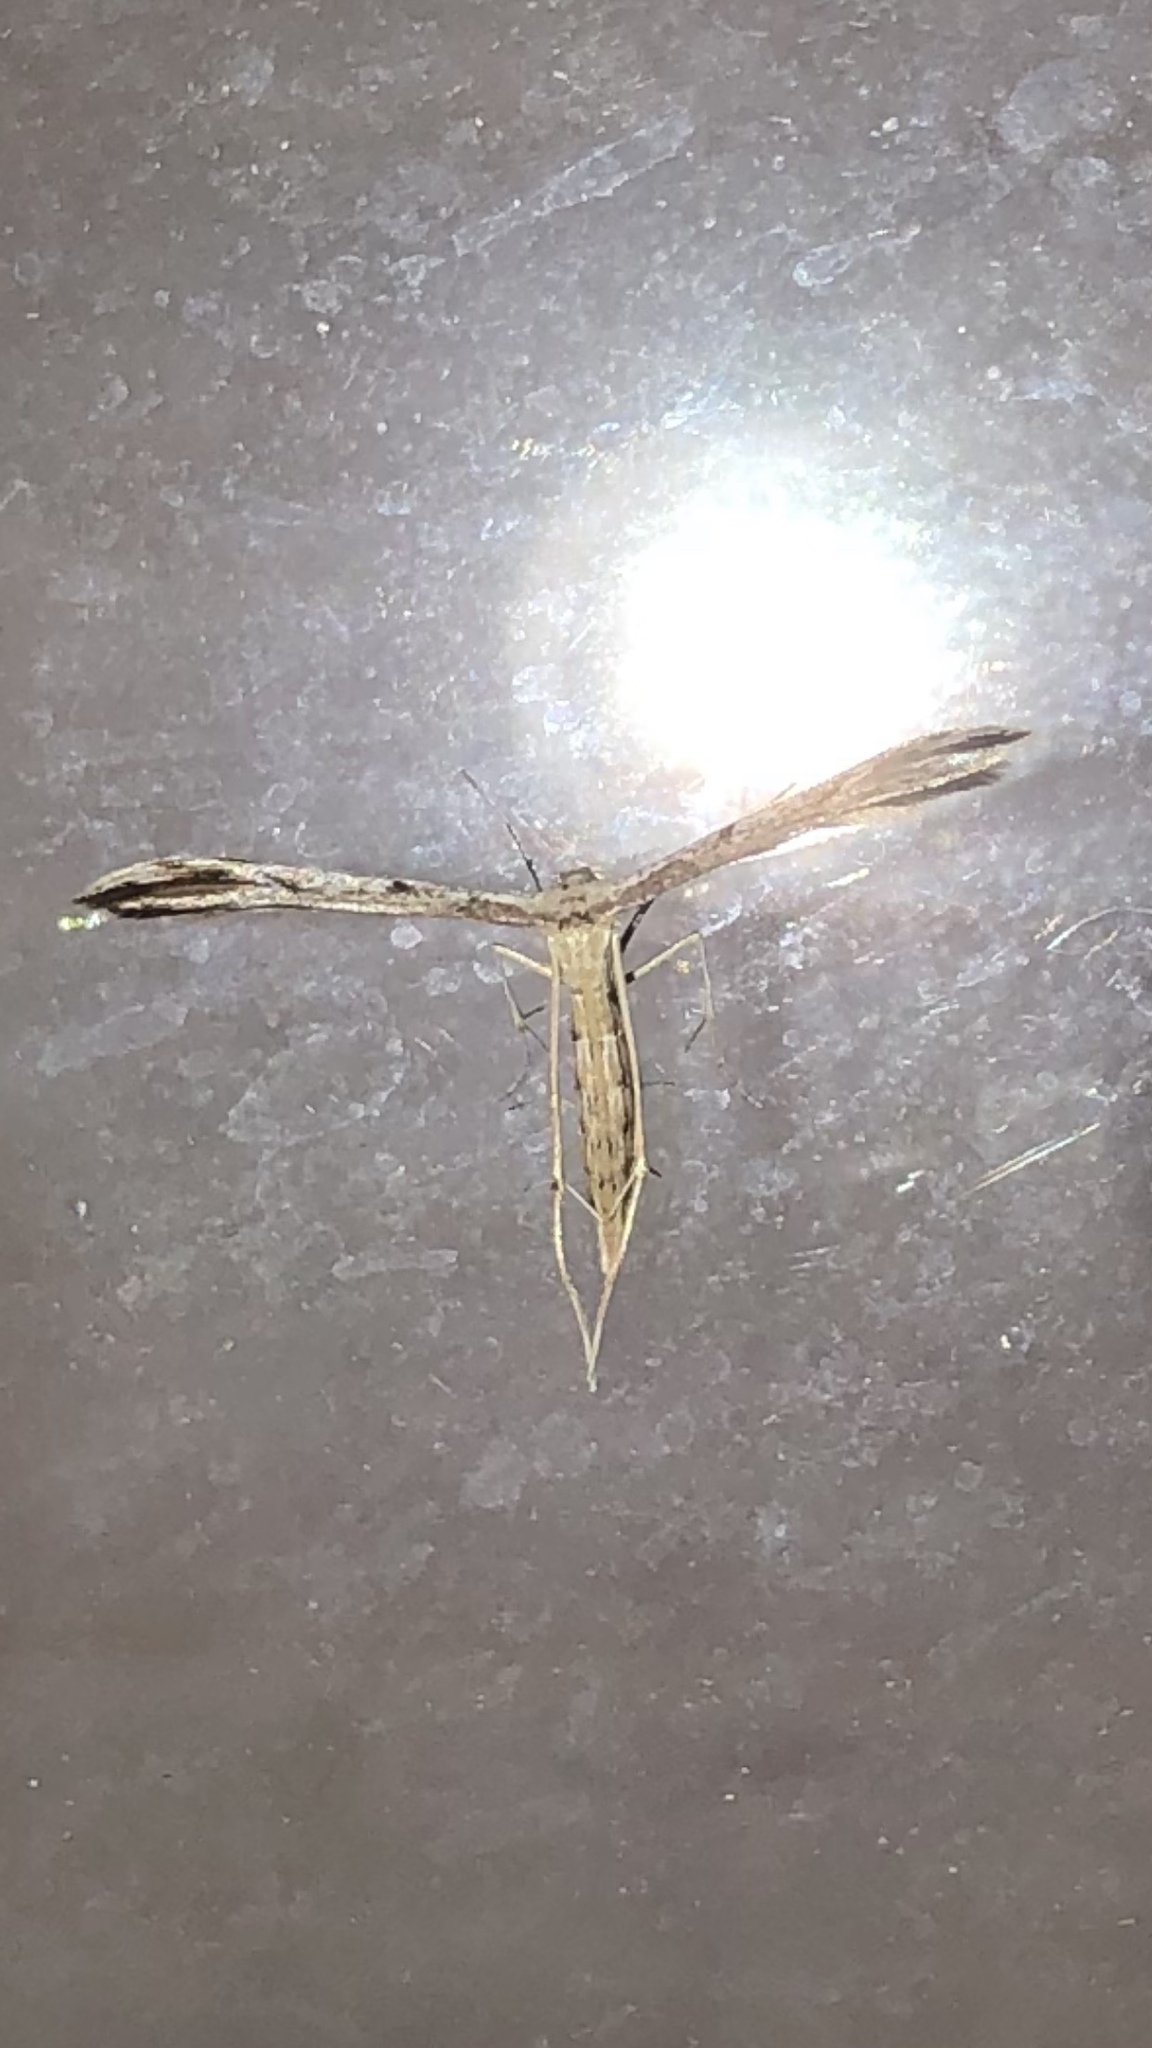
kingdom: Animalia
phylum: Arthropoda
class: Insecta
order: Lepidoptera
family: Pterophoridae
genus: Pselnophorus
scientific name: Pselnophorus belfragei
